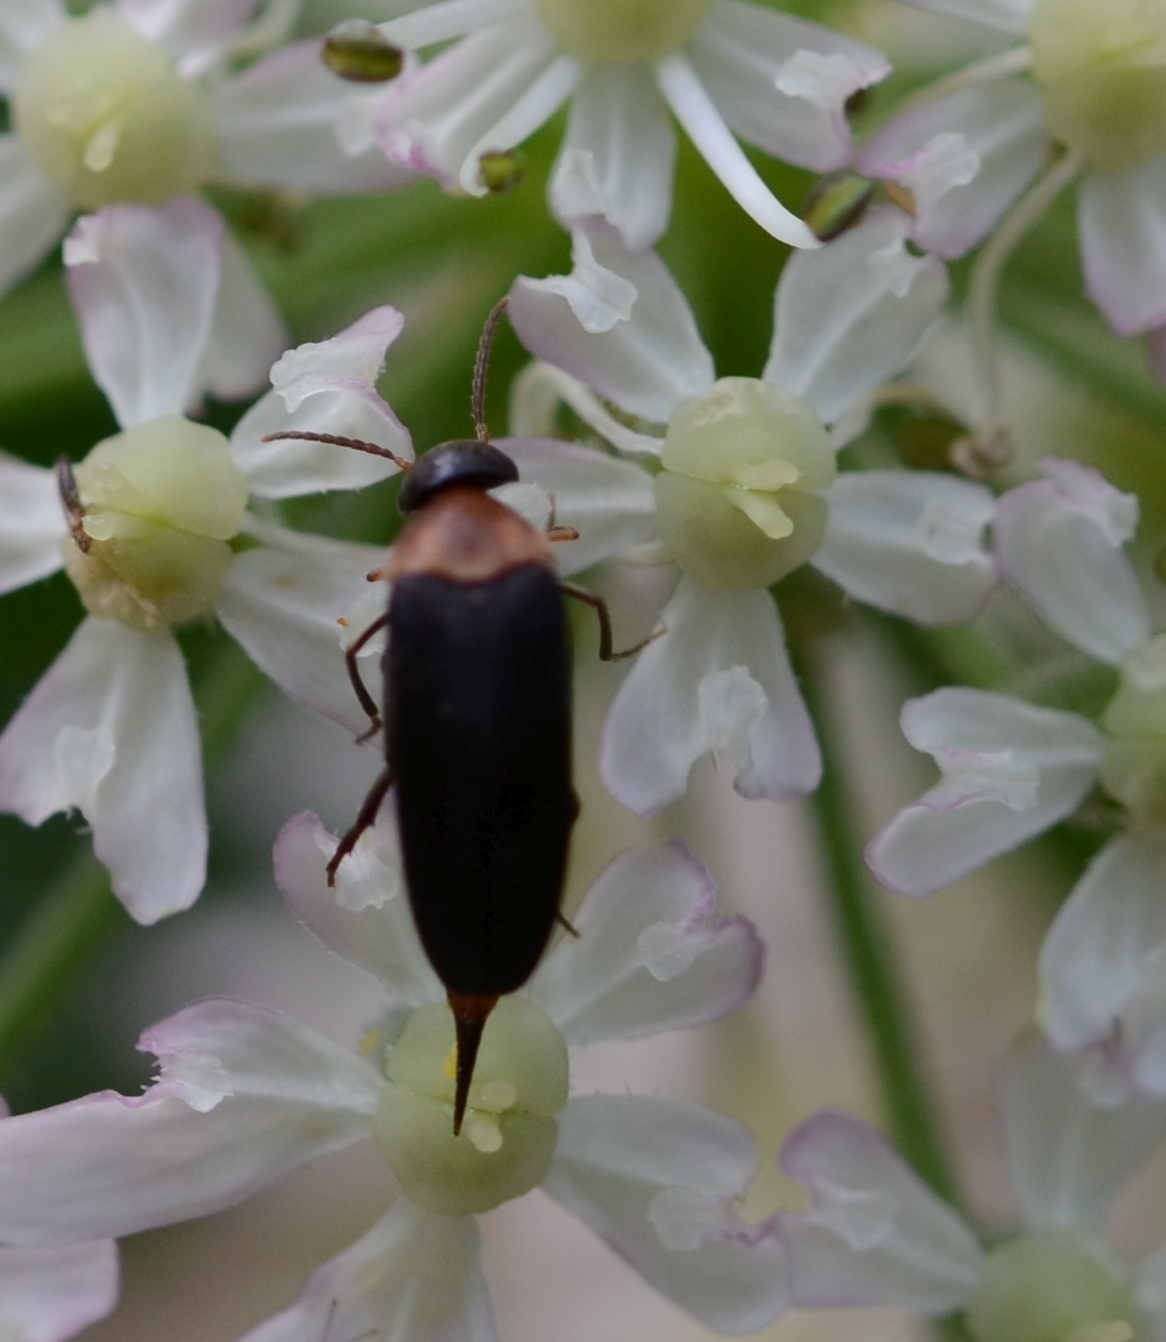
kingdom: Animalia
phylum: Arthropoda
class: Insecta
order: Coleoptera
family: Mordellidae
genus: Mordellochroa
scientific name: Mordellochroa abdominalis
